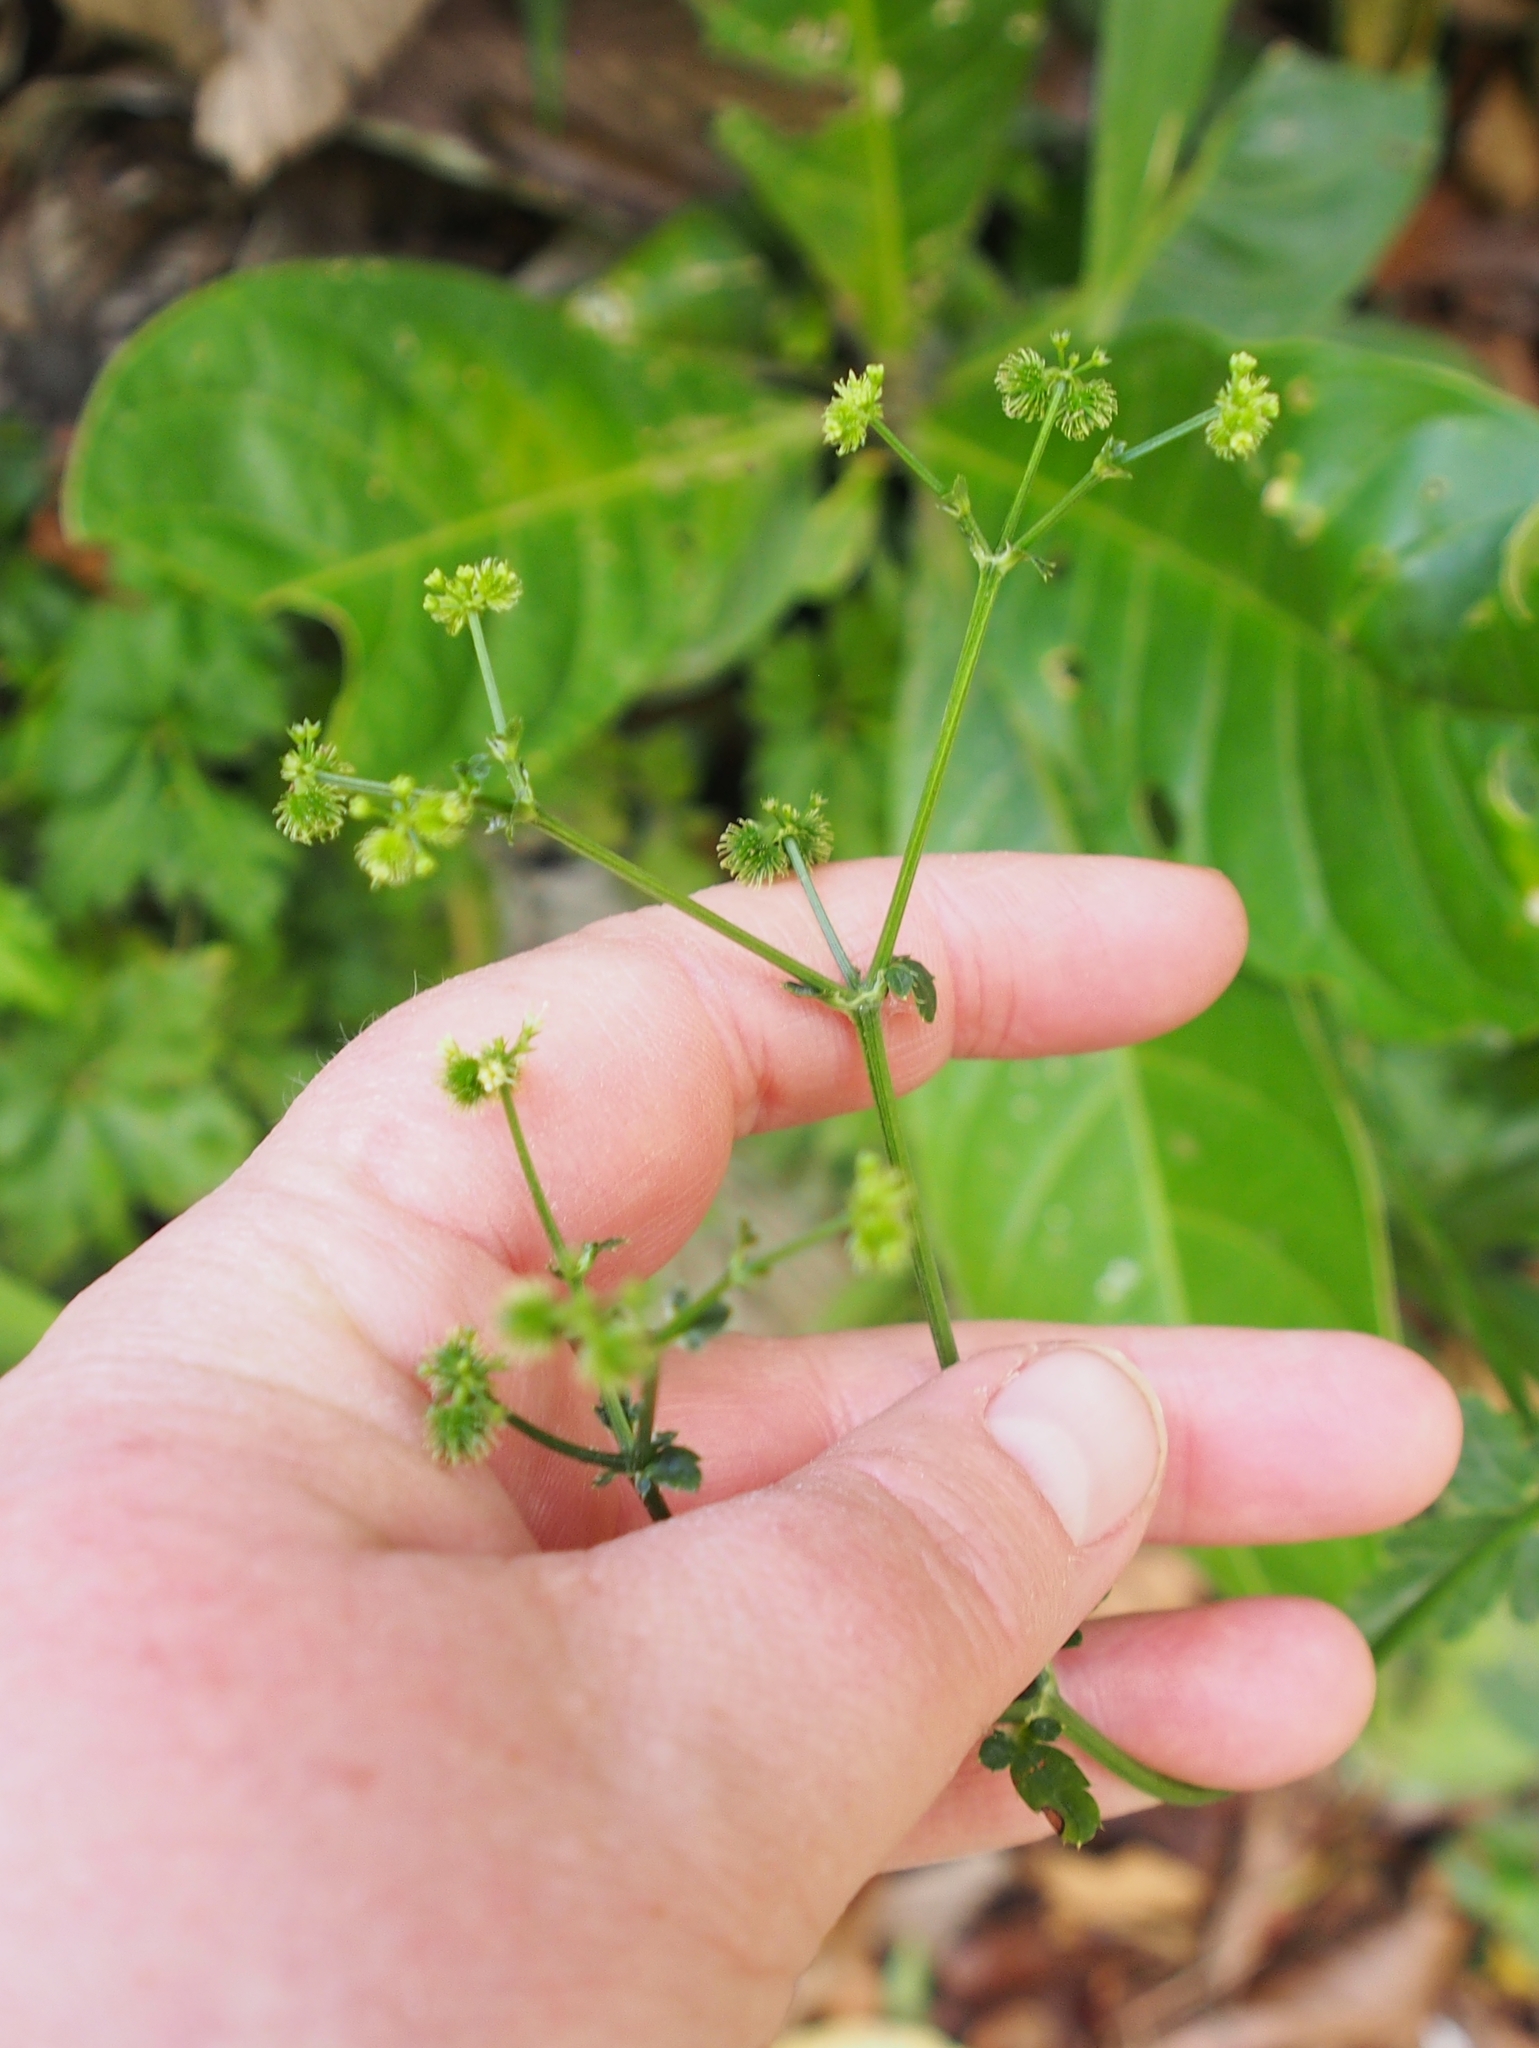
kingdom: Plantae
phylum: Tracheophyta
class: Magnoliopsida
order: Apiales
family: Apiaceae
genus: Sanicula
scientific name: Sanicula liberta
